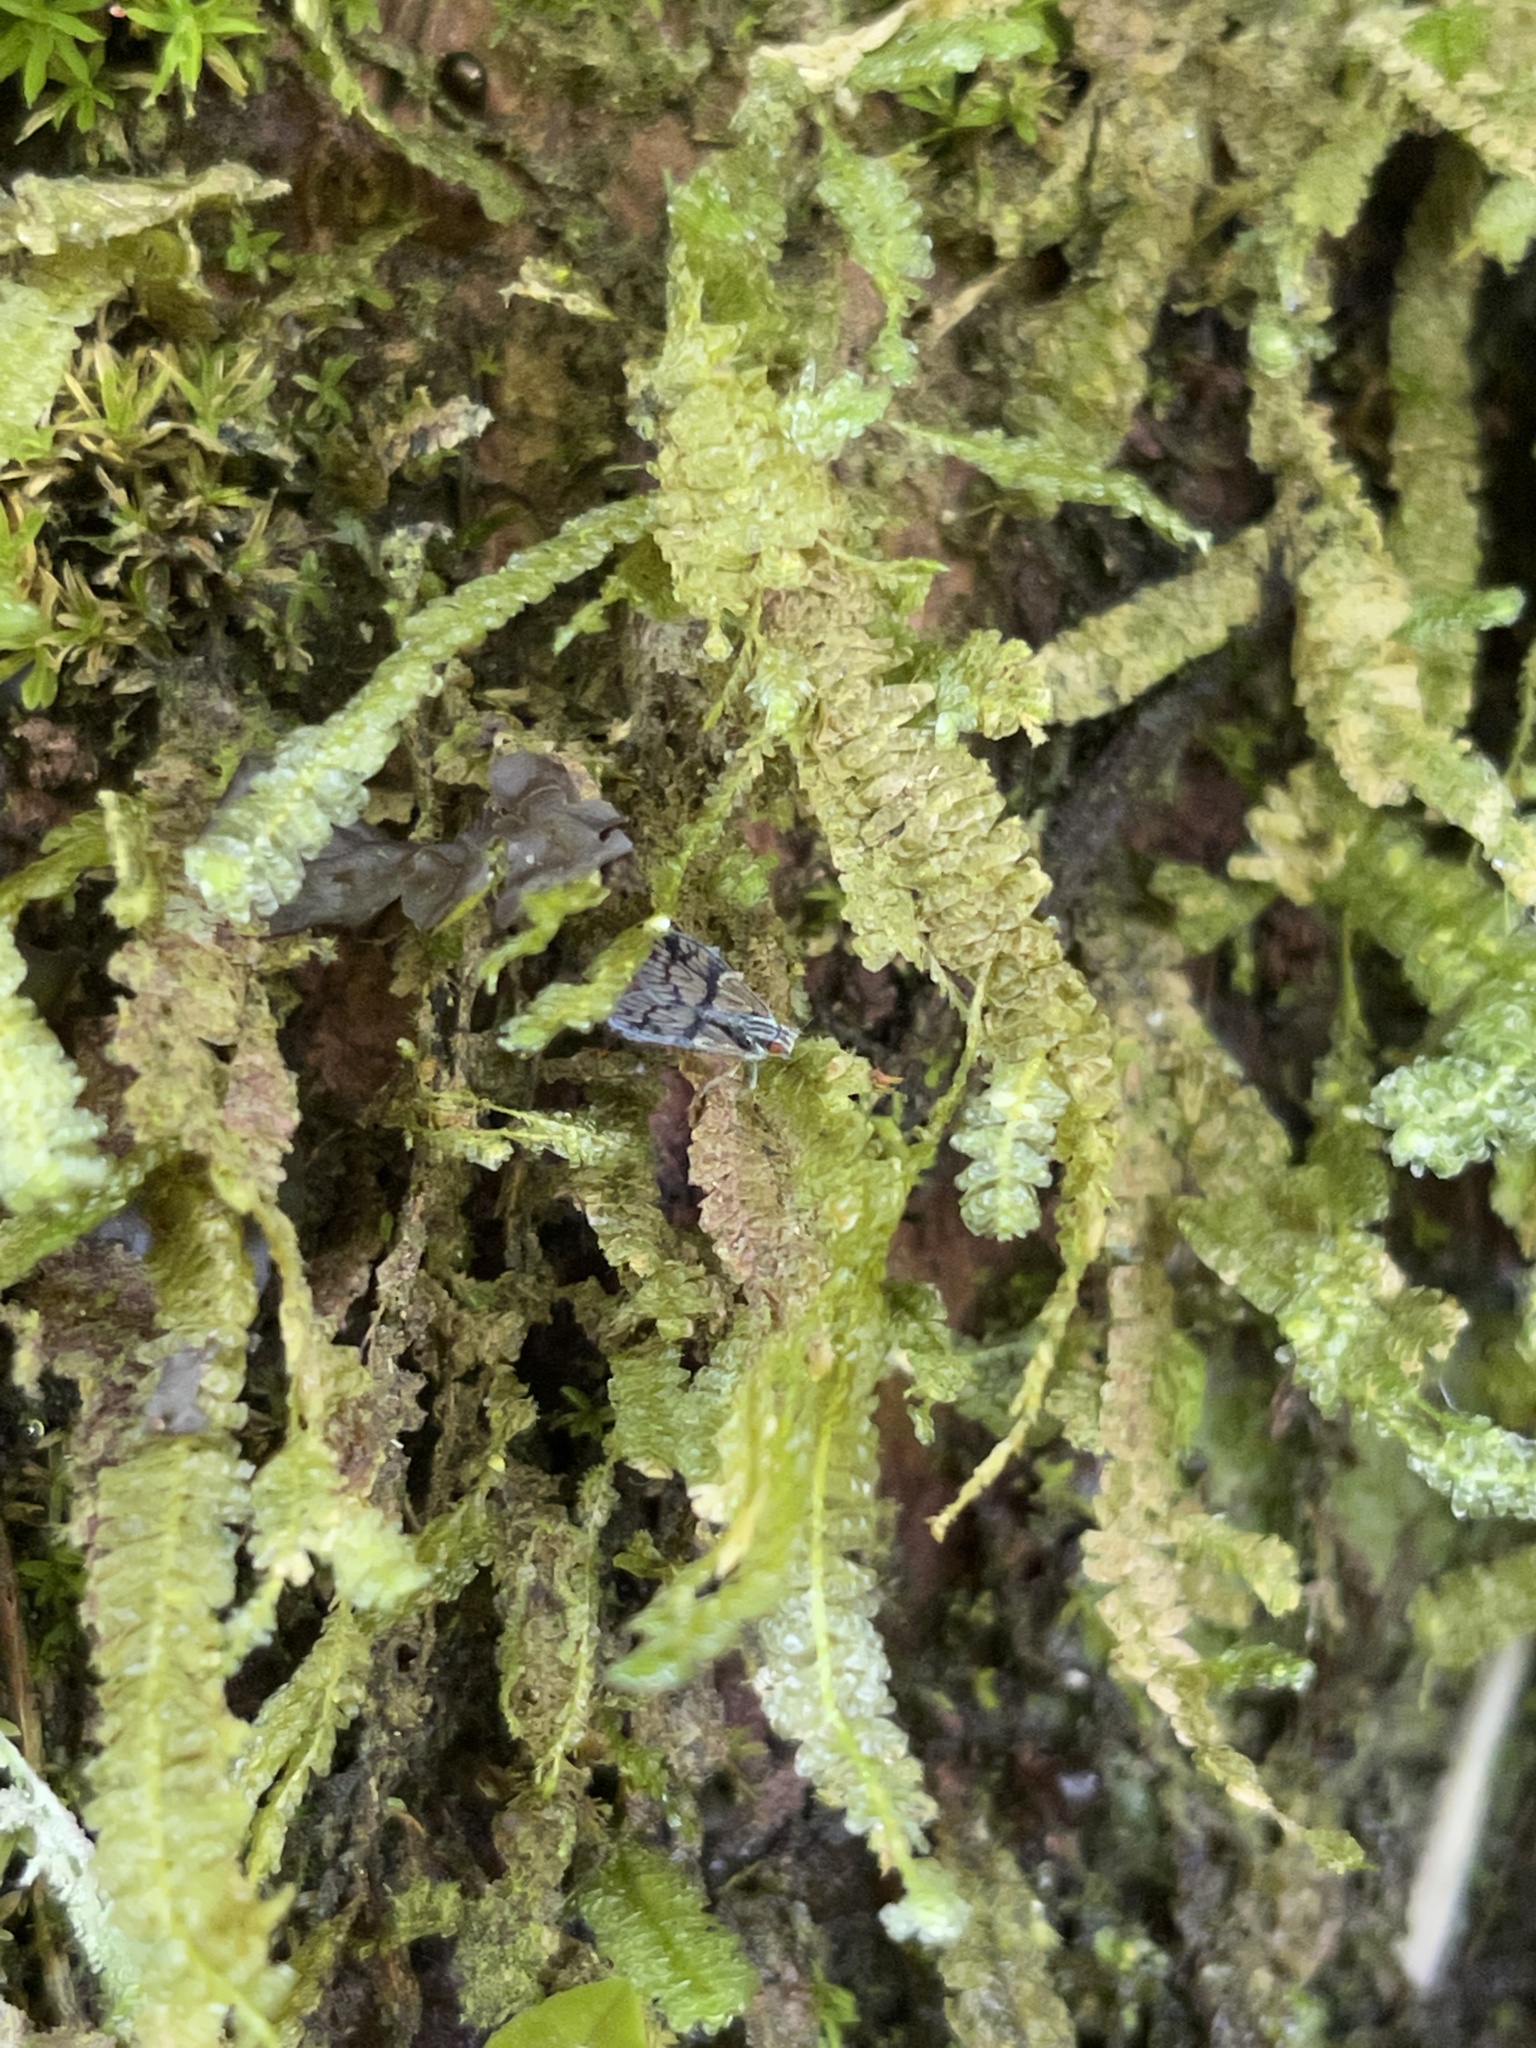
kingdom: Plantae
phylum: Bryophyta
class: Bryopsida
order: Hypnales
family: Neckeraceae
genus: Neckeropsis
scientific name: Neckeropsis undulata
